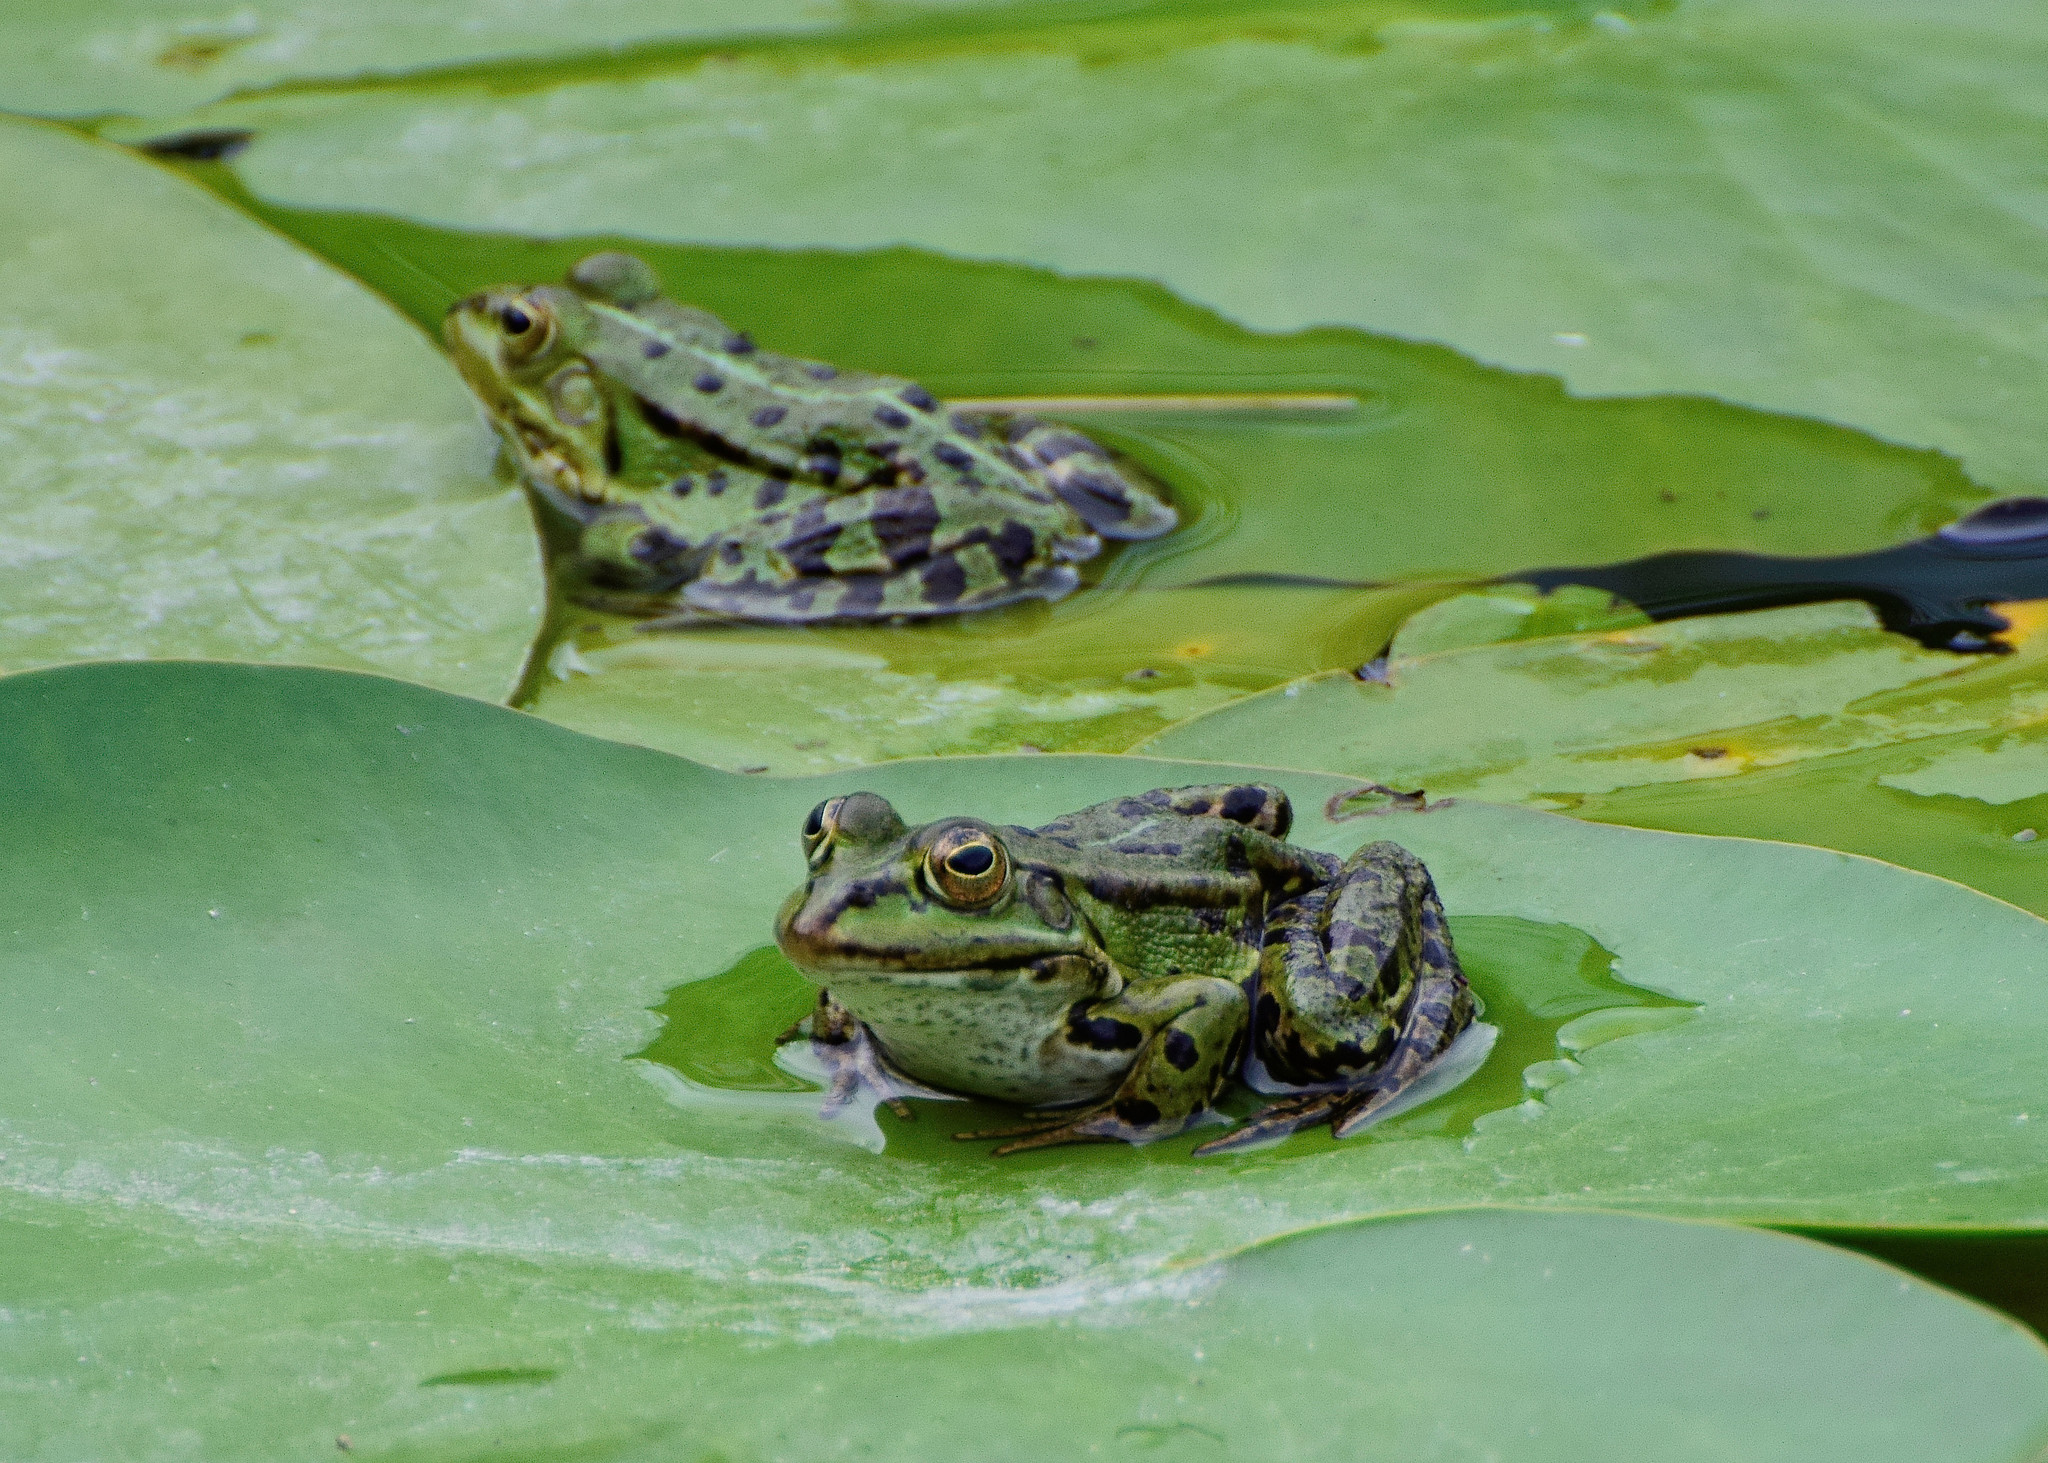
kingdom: Animalia
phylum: Chordata
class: Amphibia
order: Anura
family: Ranidae
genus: Pelophylax
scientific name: Pelophylax lessonae
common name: Pool frog
